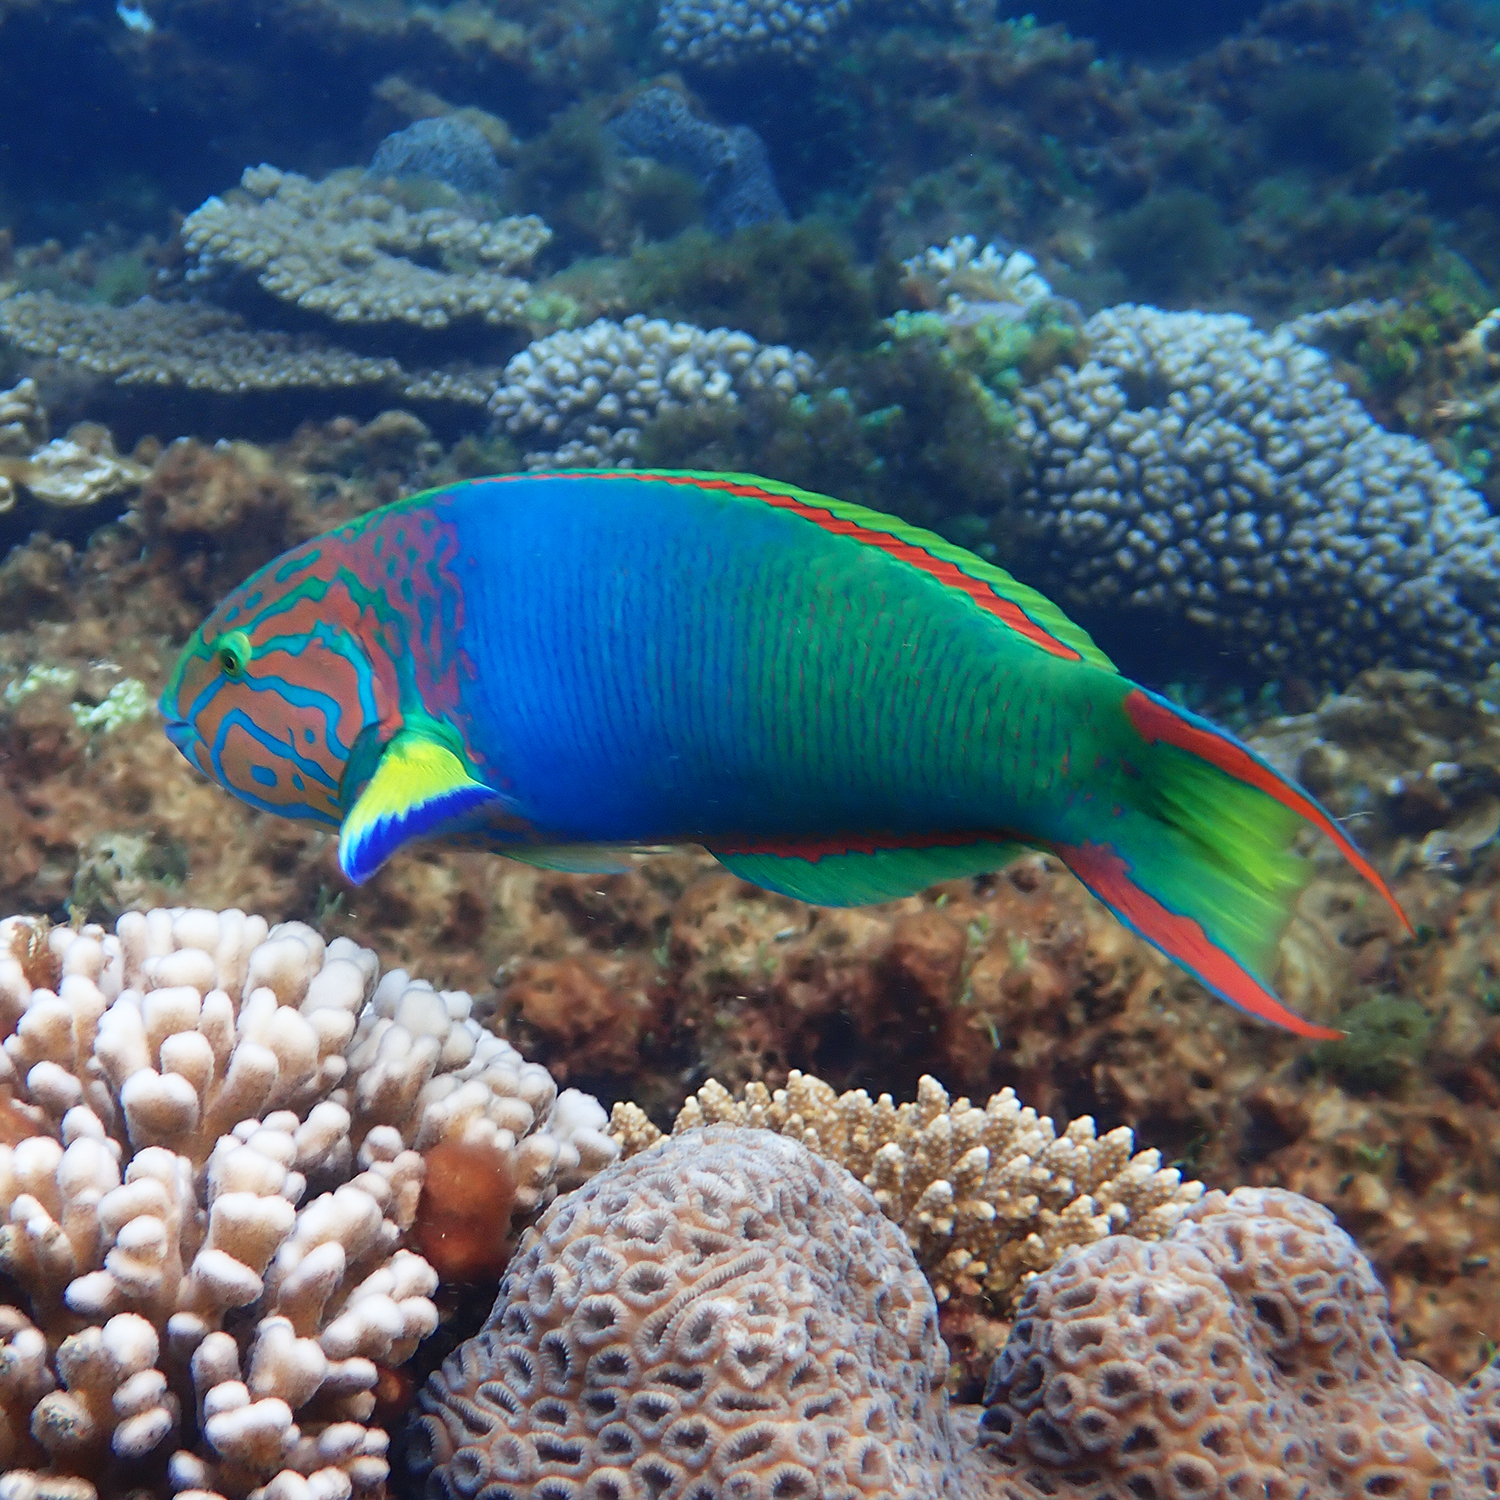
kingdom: Animalia
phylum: Chordata
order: Perciformes
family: Labridae
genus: Thalassoma
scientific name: Thalassoma lutescens
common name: Green moon wrasse
